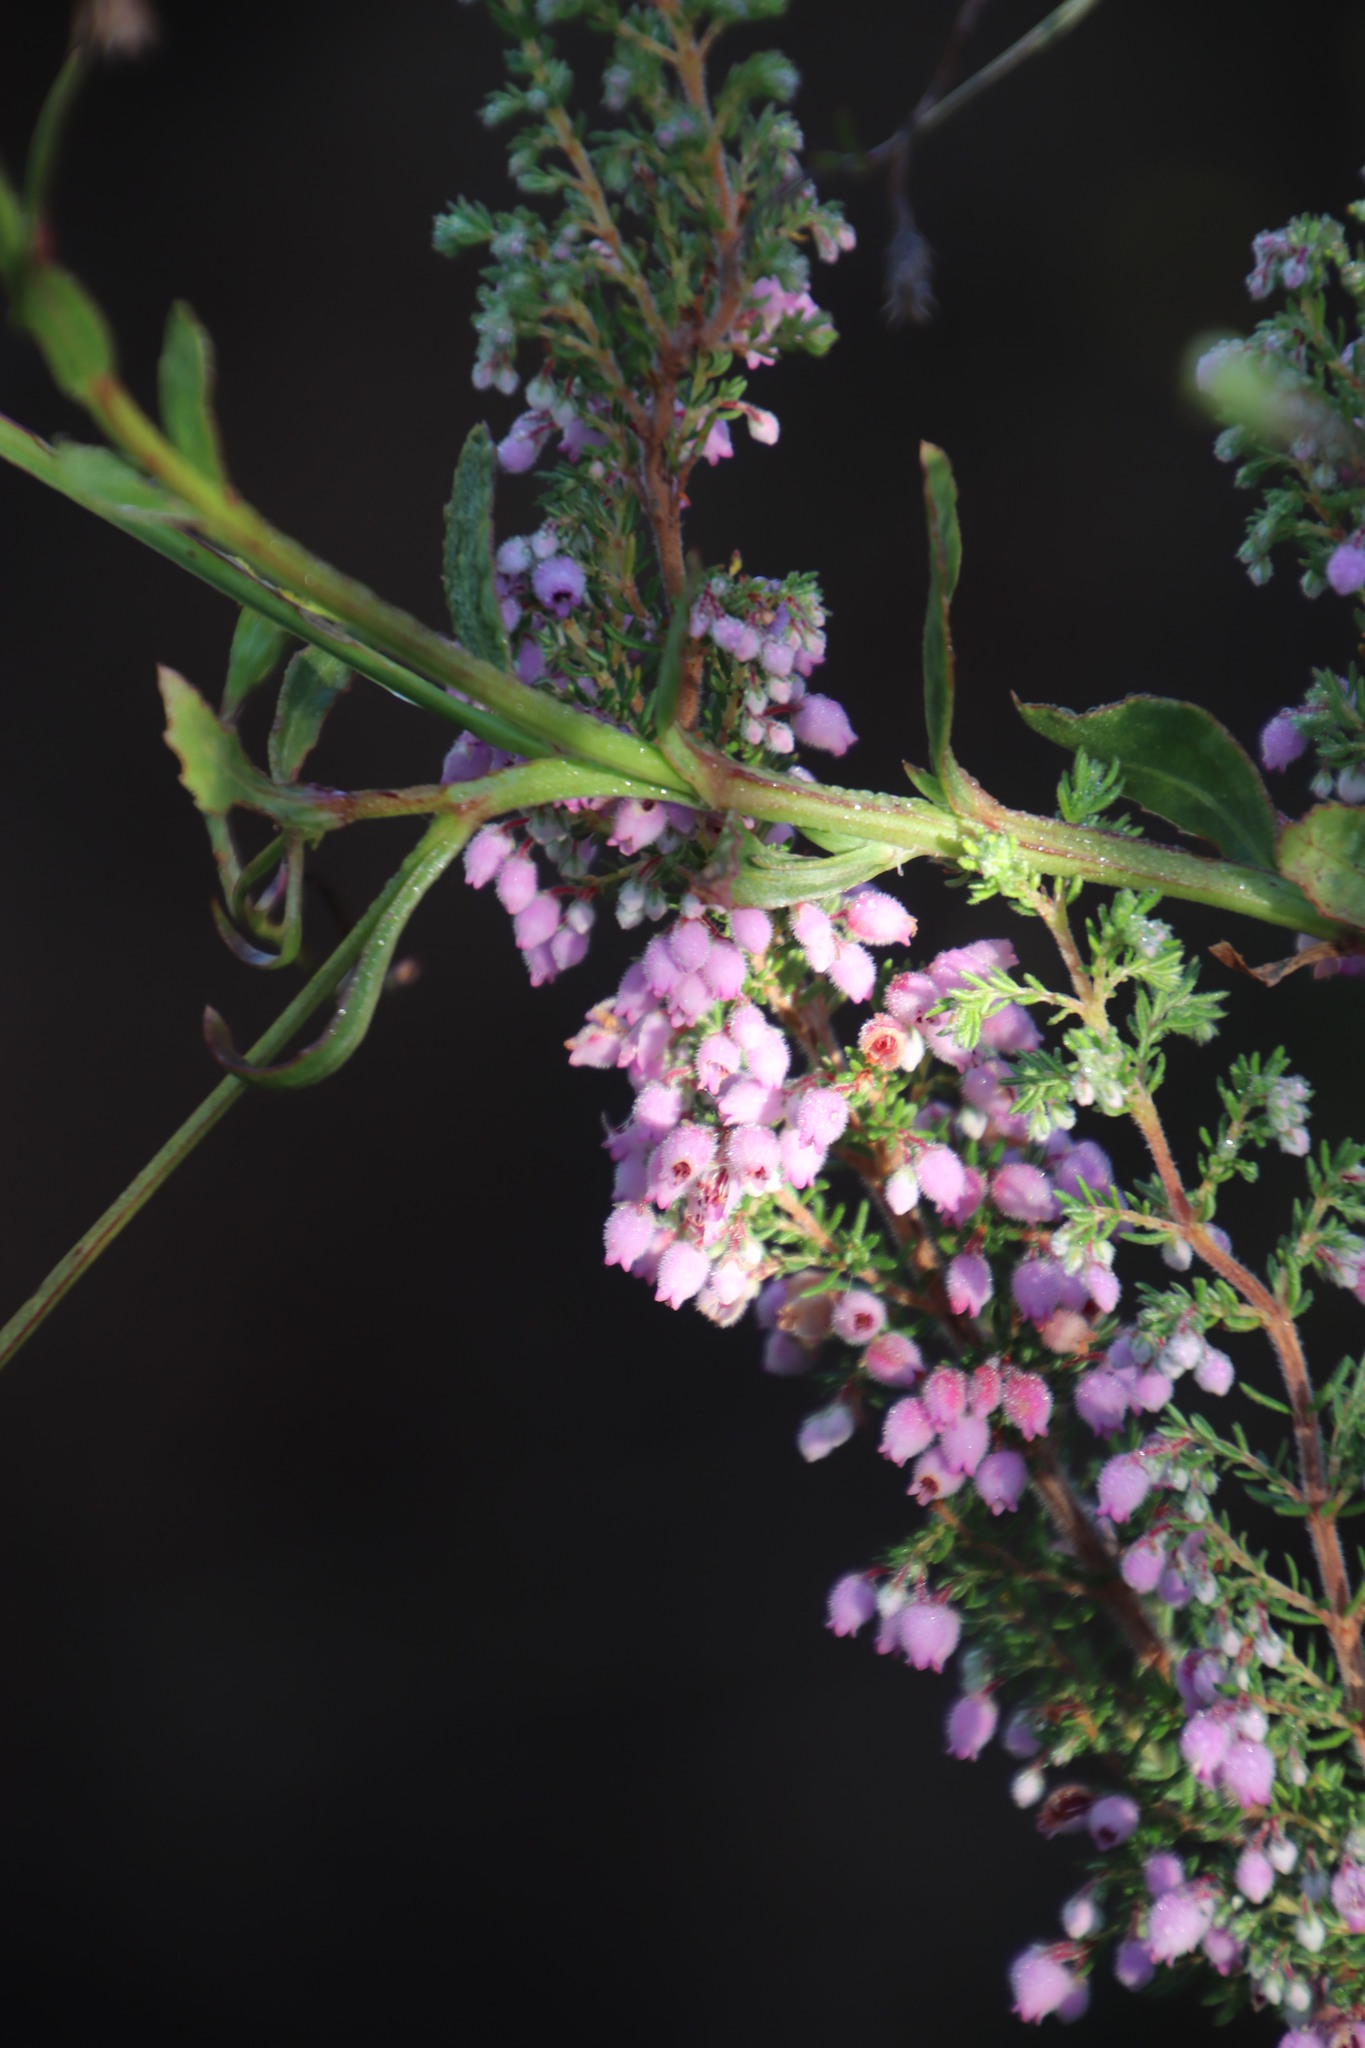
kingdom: Plantae
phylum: Tracheophyta
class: Magnoliopsida
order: Ericales
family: Ericaceae
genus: Erica
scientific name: Erica hirtiflora
